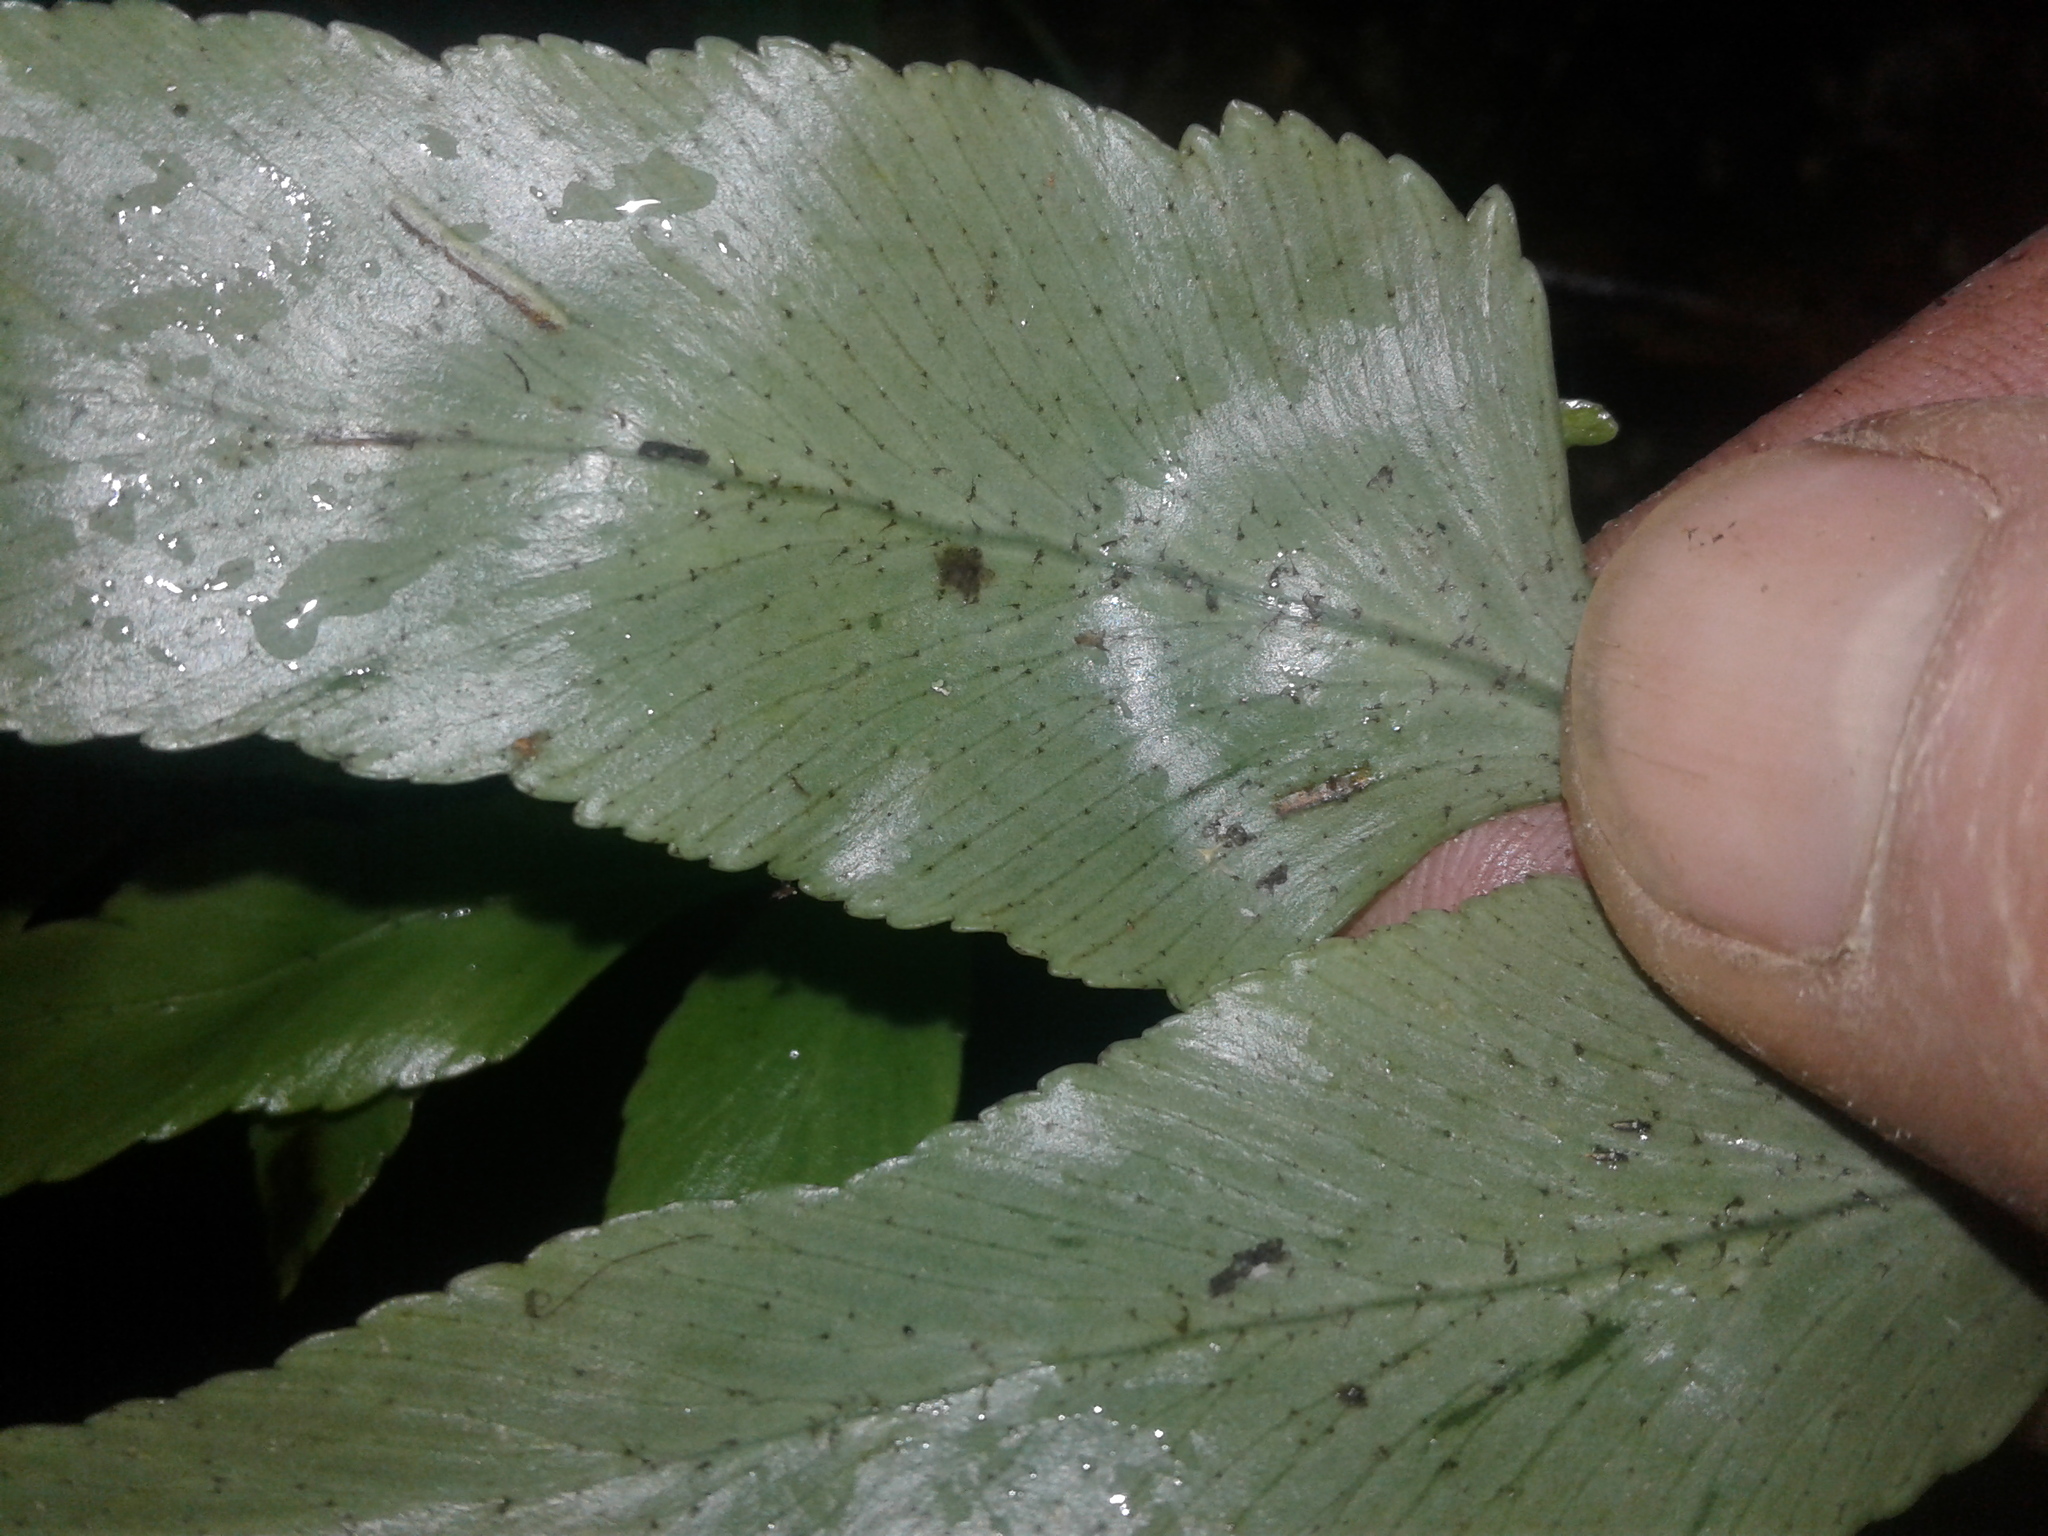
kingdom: Plantae
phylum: Tracheophyta
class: Polypodiopsida
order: Polypodiales
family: Aspleniaceae
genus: Asplenium
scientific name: Asplenium lepidotum
